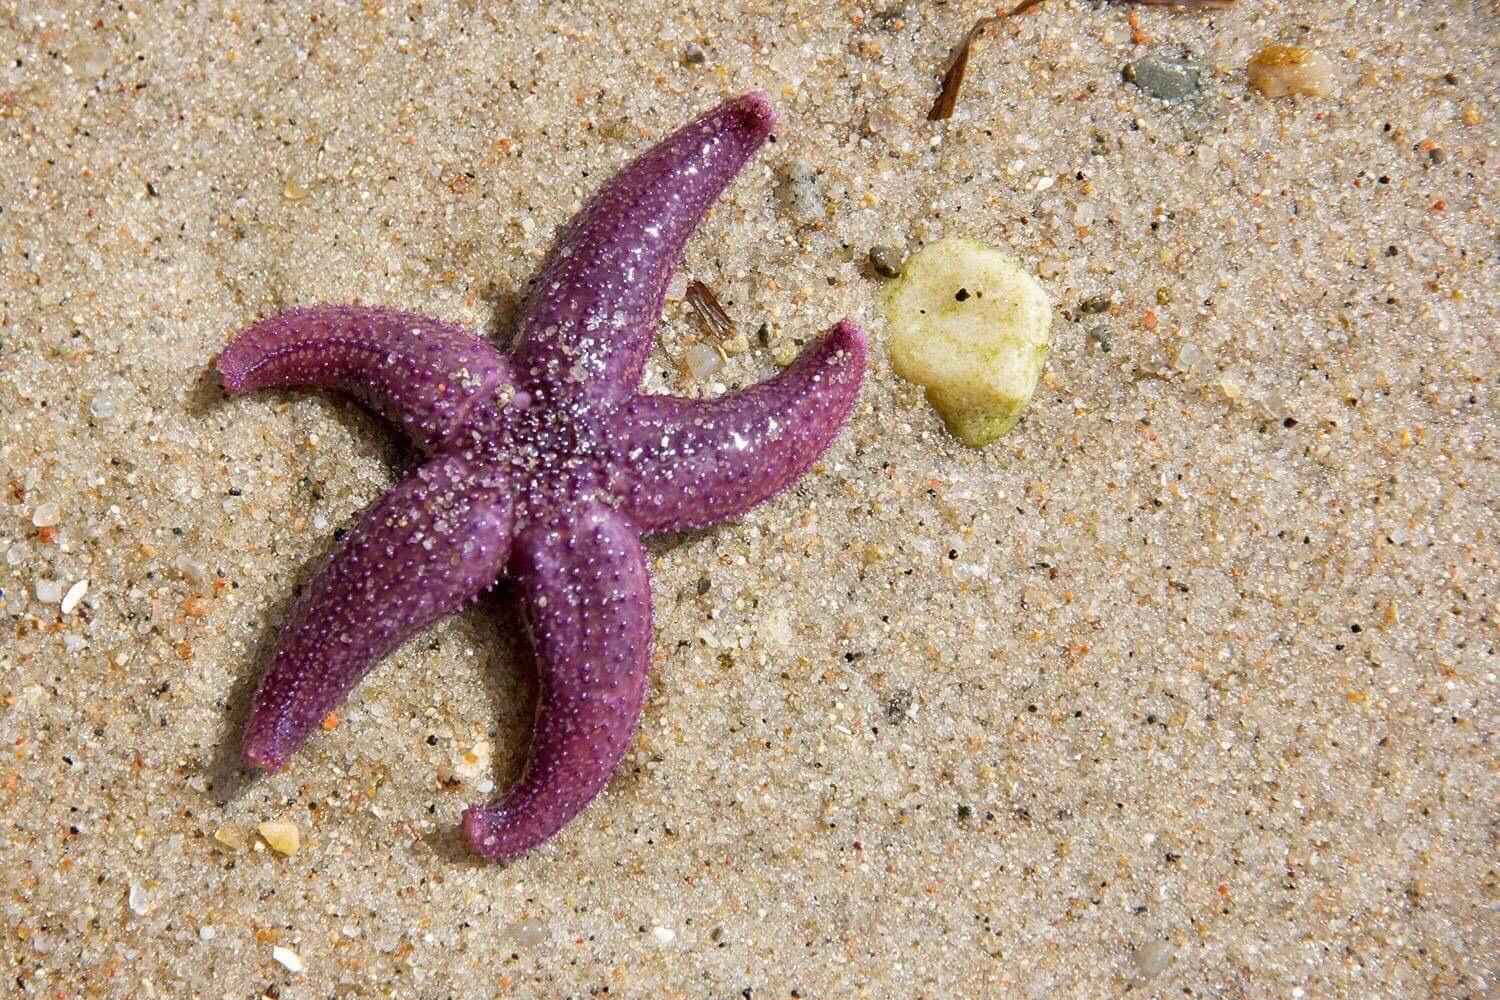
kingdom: Animalia
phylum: Echinodermata
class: Asteroidea
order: Forcipulatida
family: Asteriidae
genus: Asterias
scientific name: Asterias rubens
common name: Common starfish
